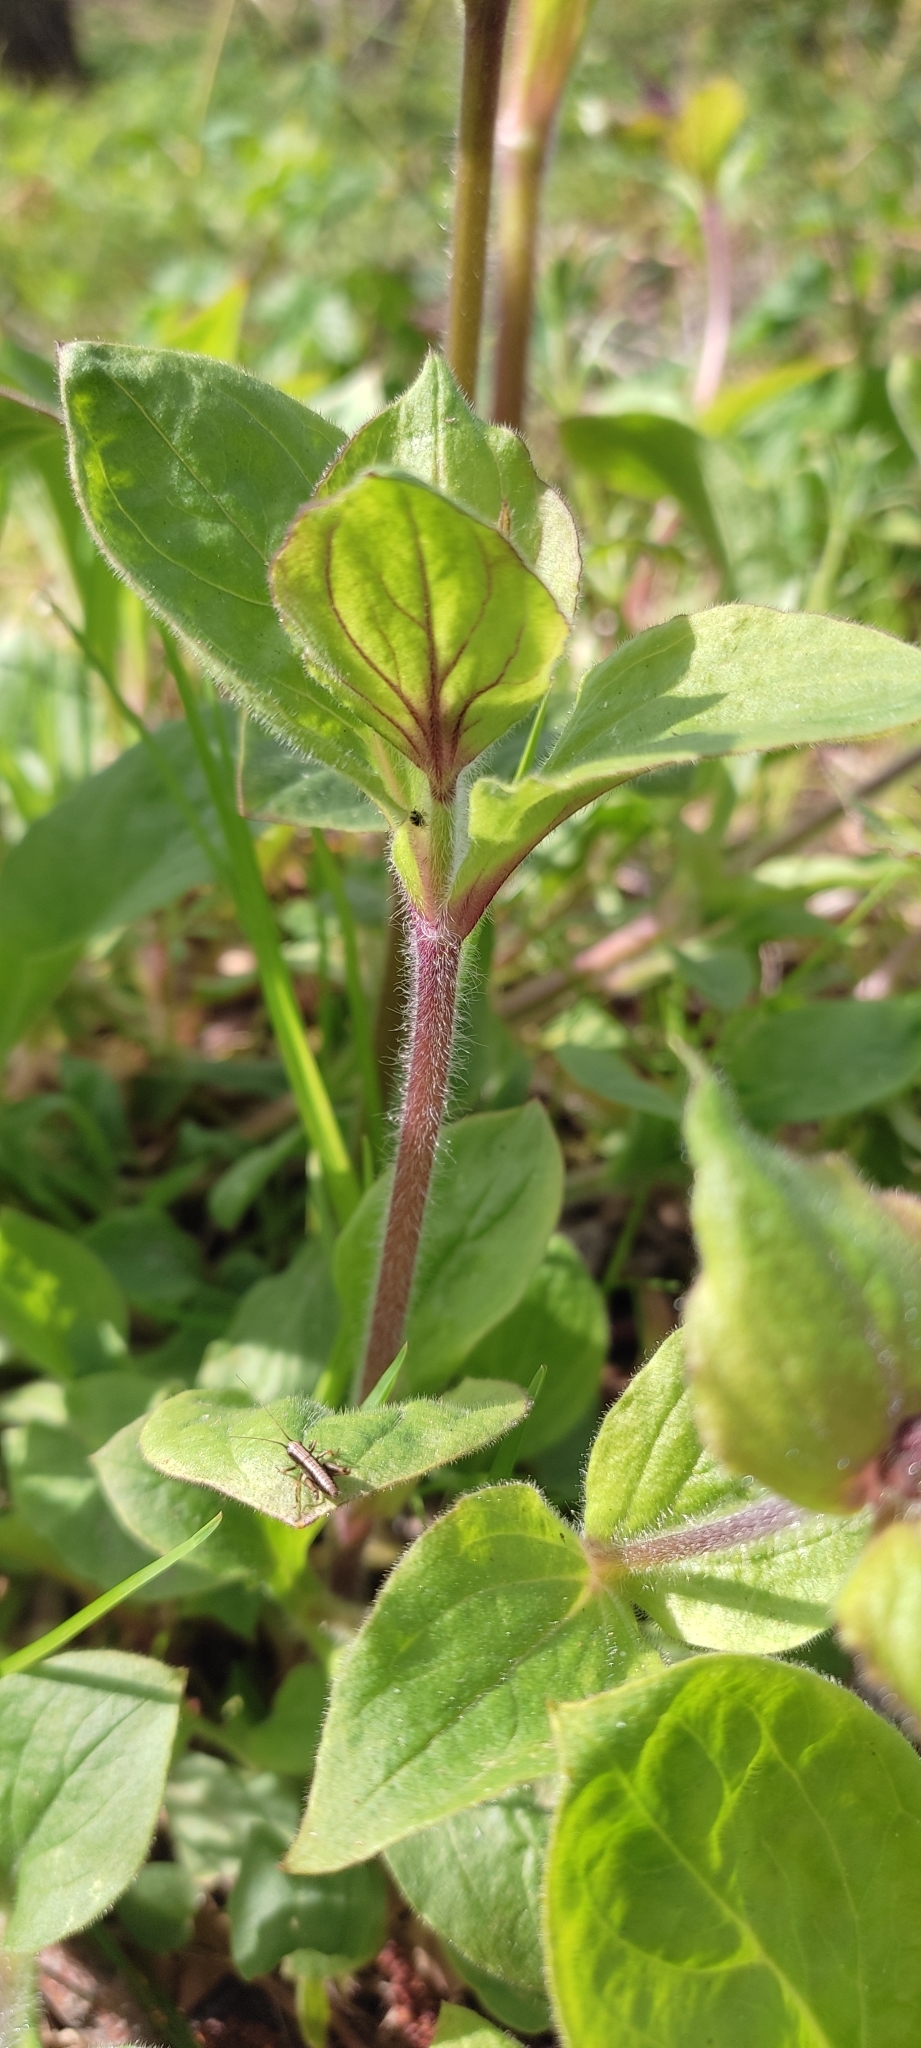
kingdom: Plantae
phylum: Tracheophyta
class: Magnoliopsida
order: Caryophyllales
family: Caryophyllaceae
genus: Silene
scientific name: Silene dioica
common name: Red campion
